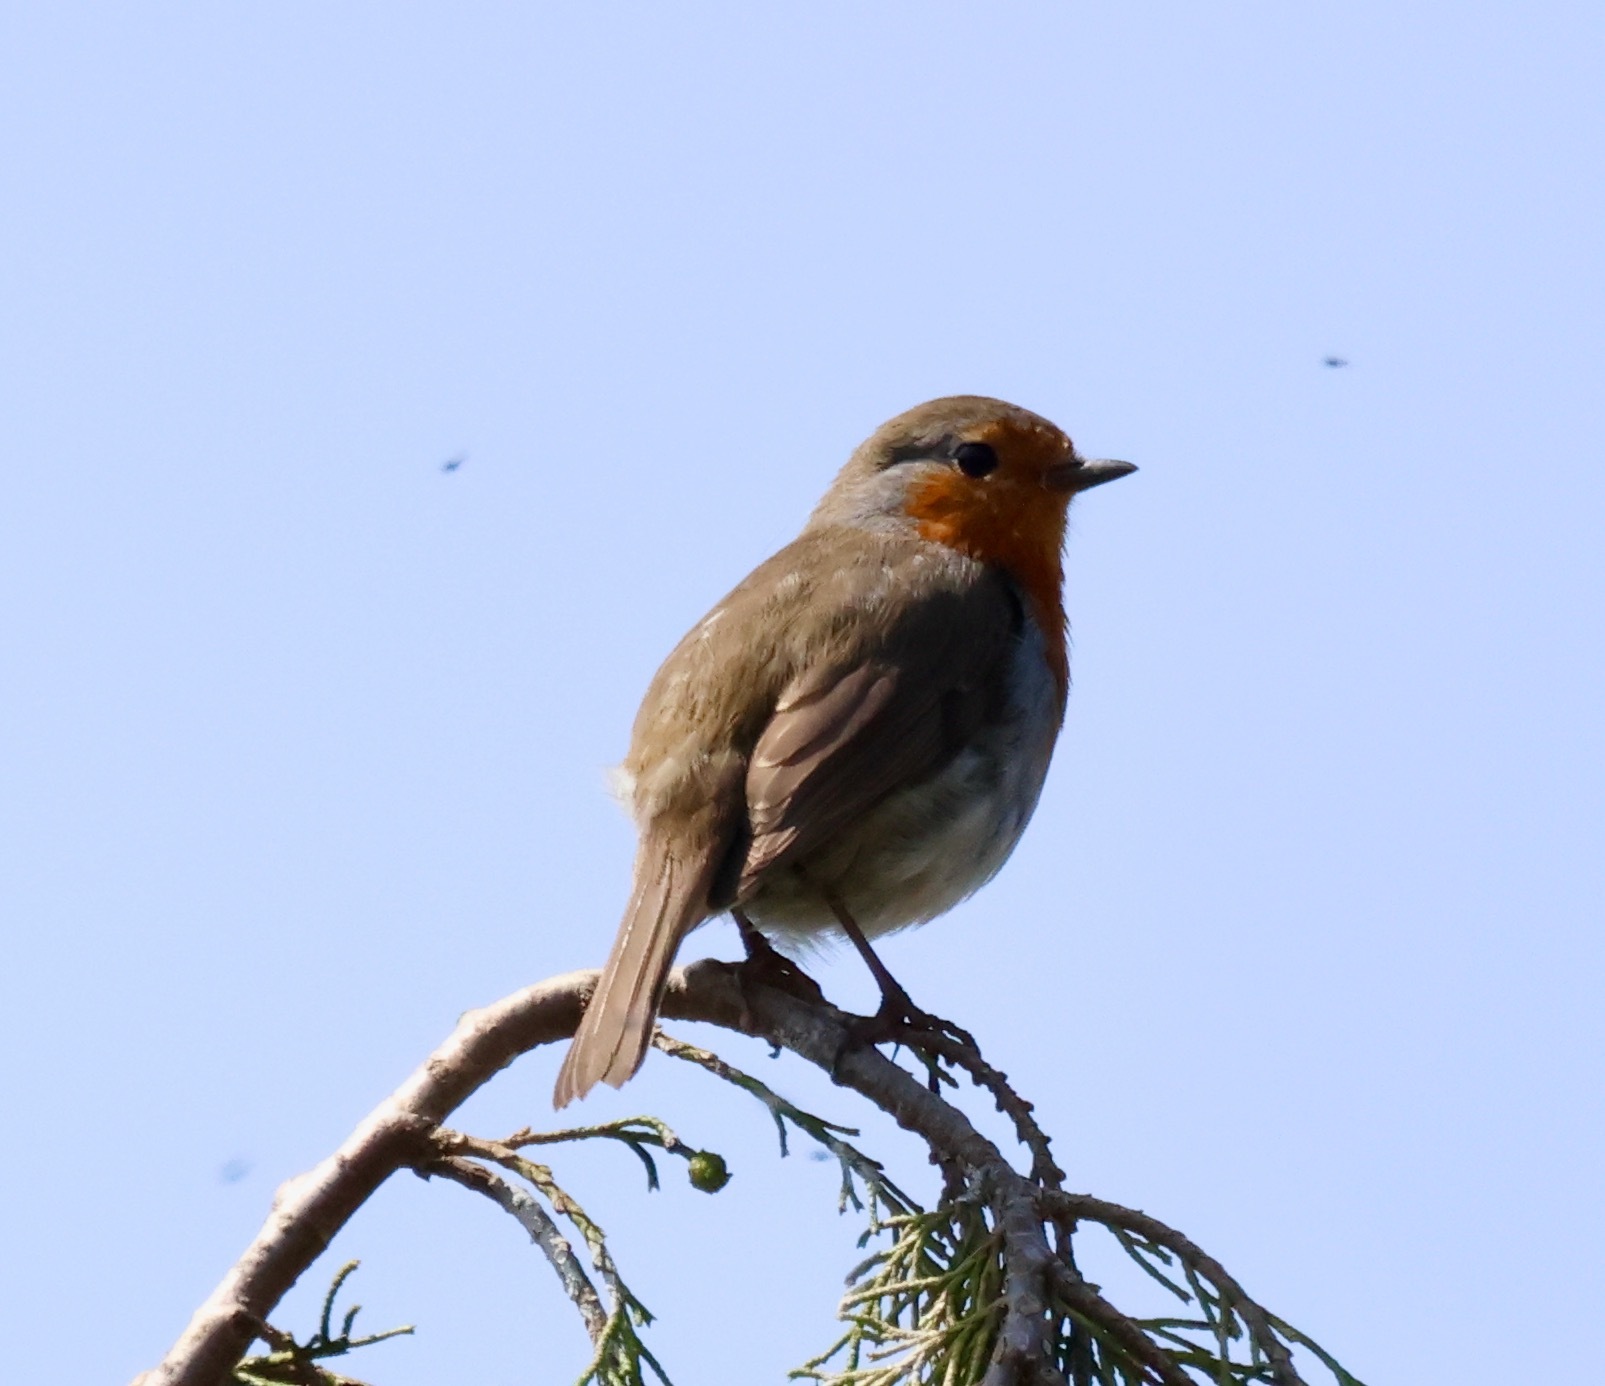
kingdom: Animalia
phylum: Chordata
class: Aves
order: Passeriformes
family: Muscicapidae
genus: Erithacus
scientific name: Erithacus rubecula
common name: European robin
